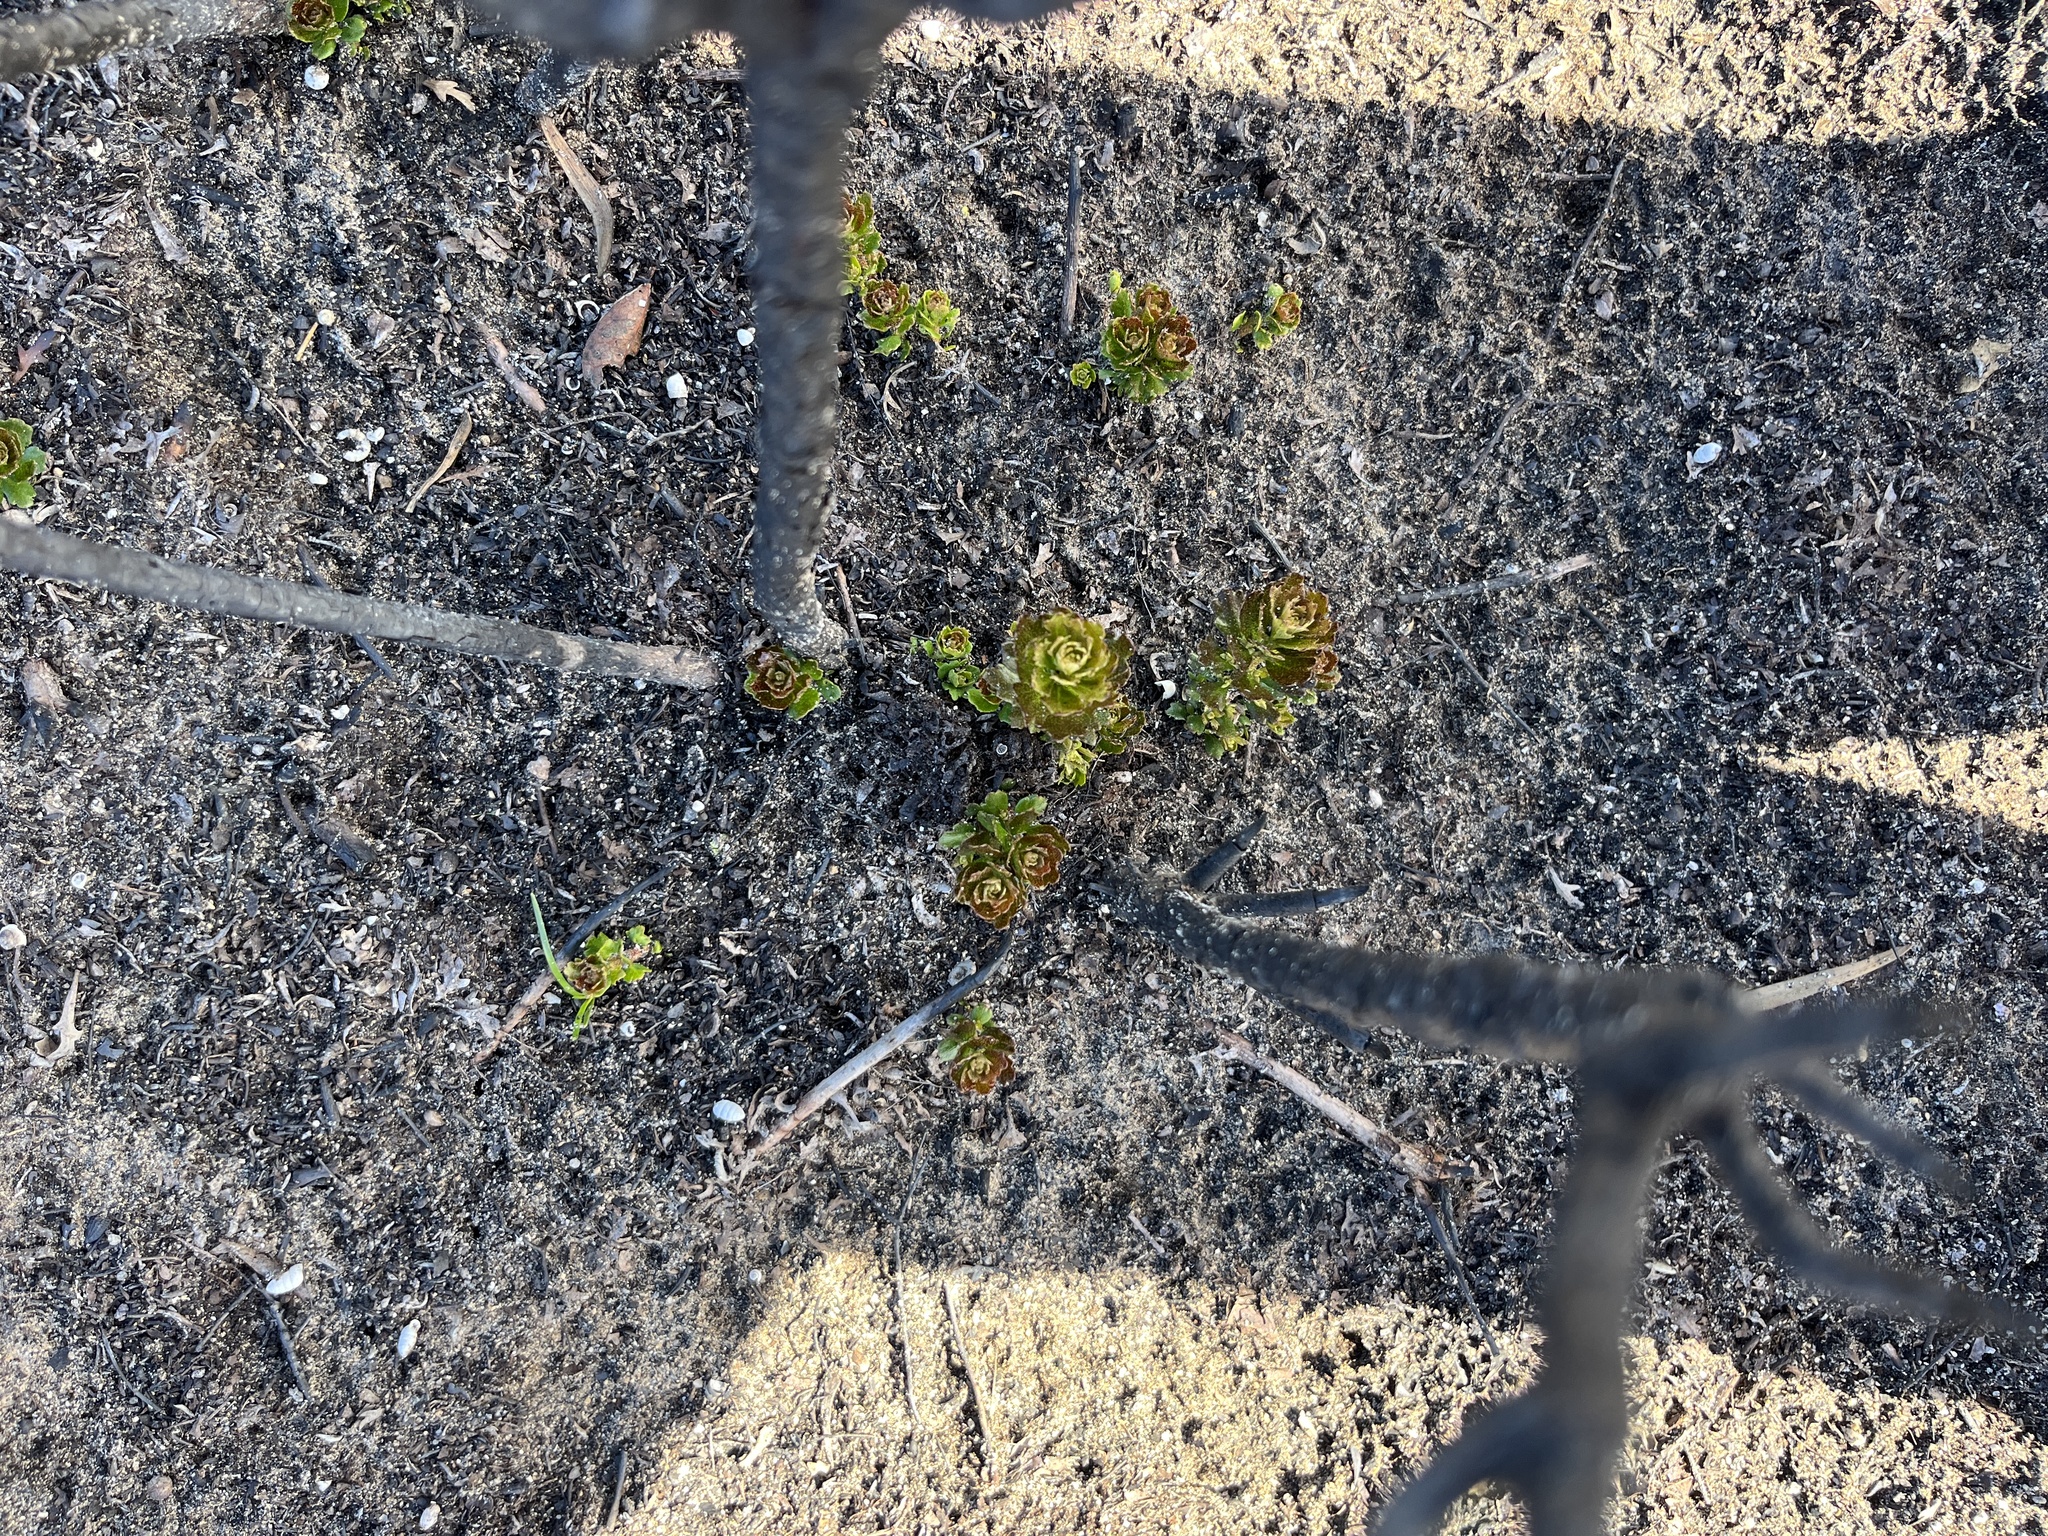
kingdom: Plantae
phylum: Tracheophyta
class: Magnoliopsida
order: Fagales
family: Myricaceae
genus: Morella
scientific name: Morella quercifolia
